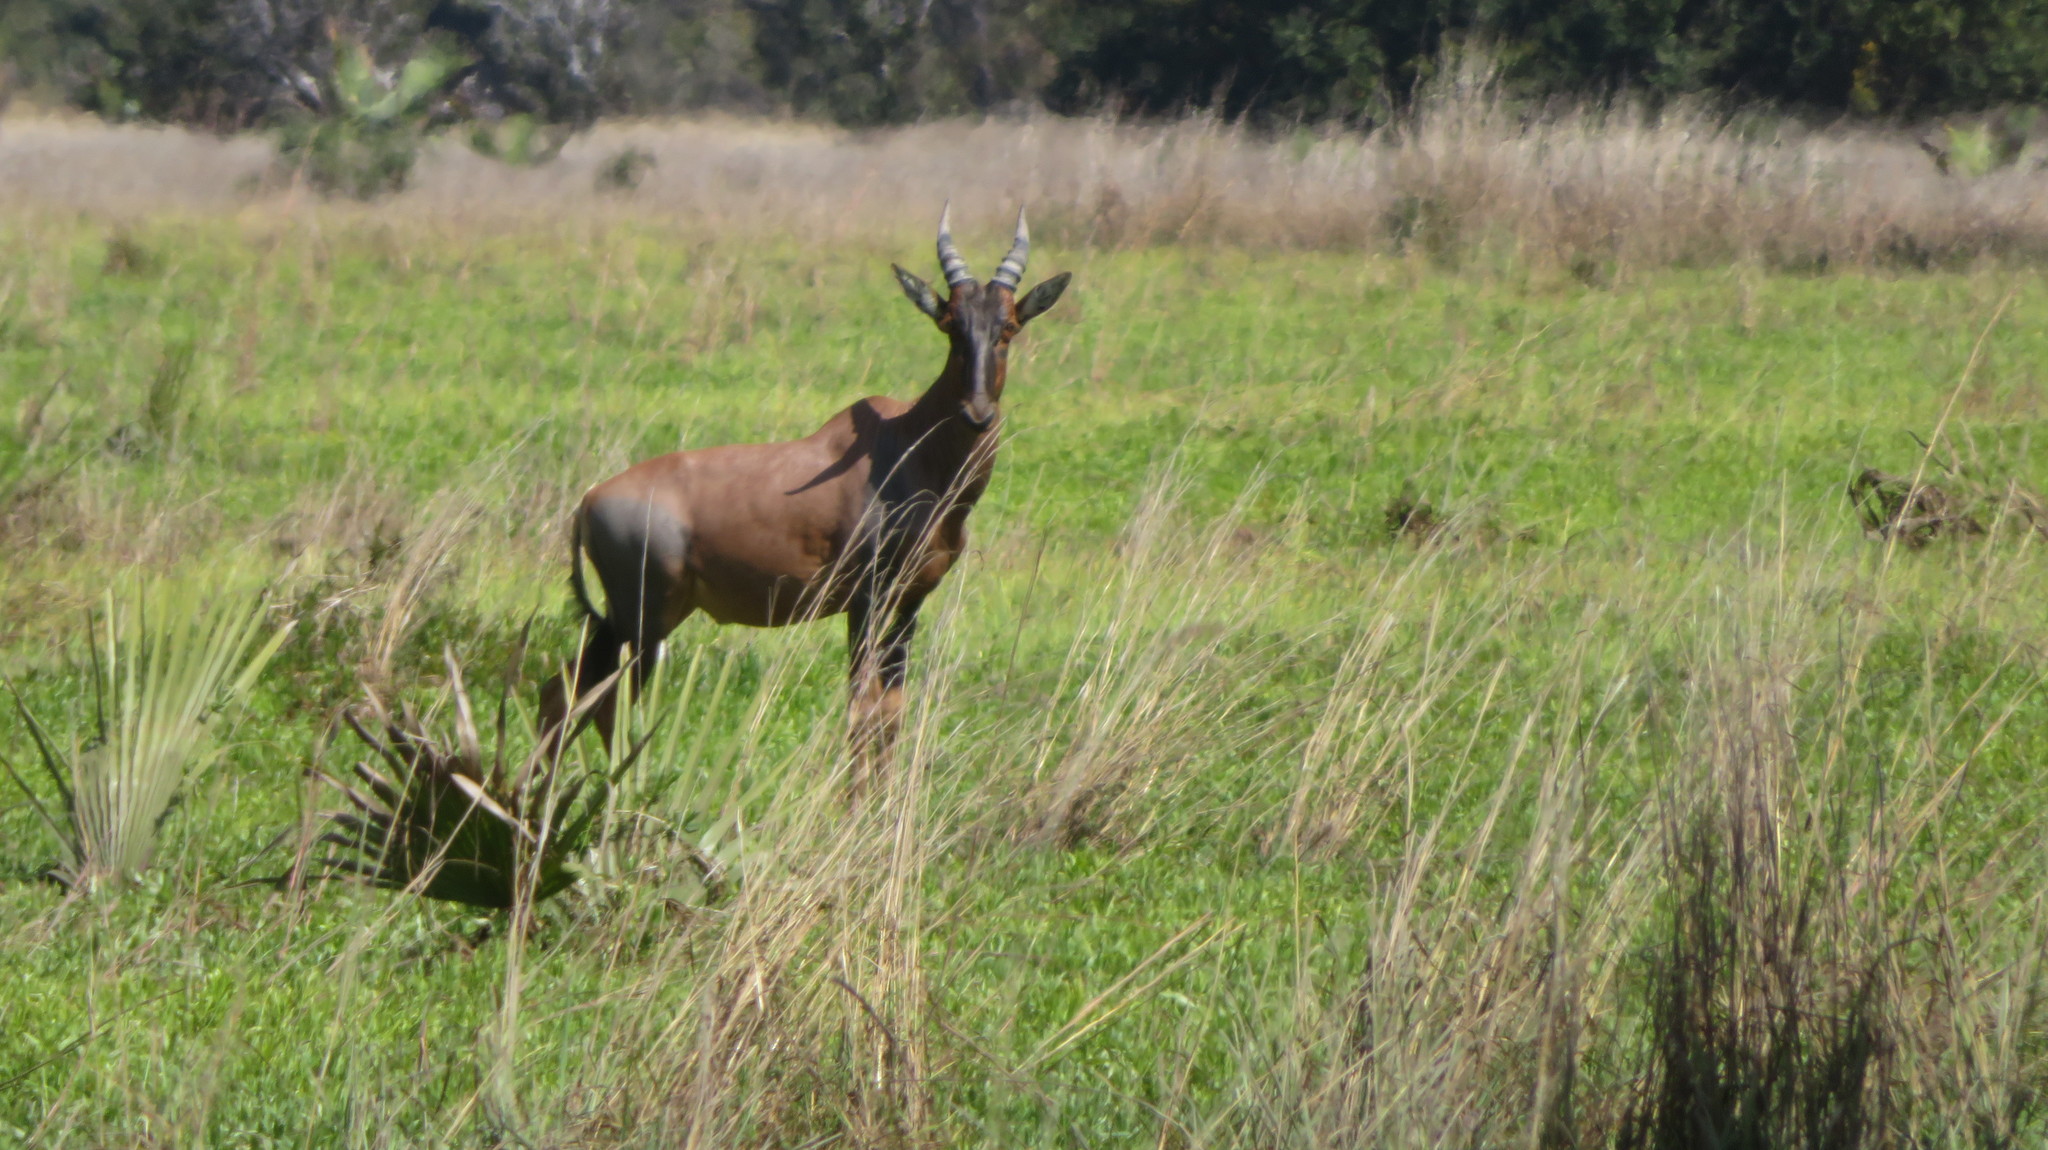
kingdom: Animalia
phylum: Chordata
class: Mammalia
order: Artiodactyla
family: Bovidae
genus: Damaliscus
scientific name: Damaliscus korrigum
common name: Topi
